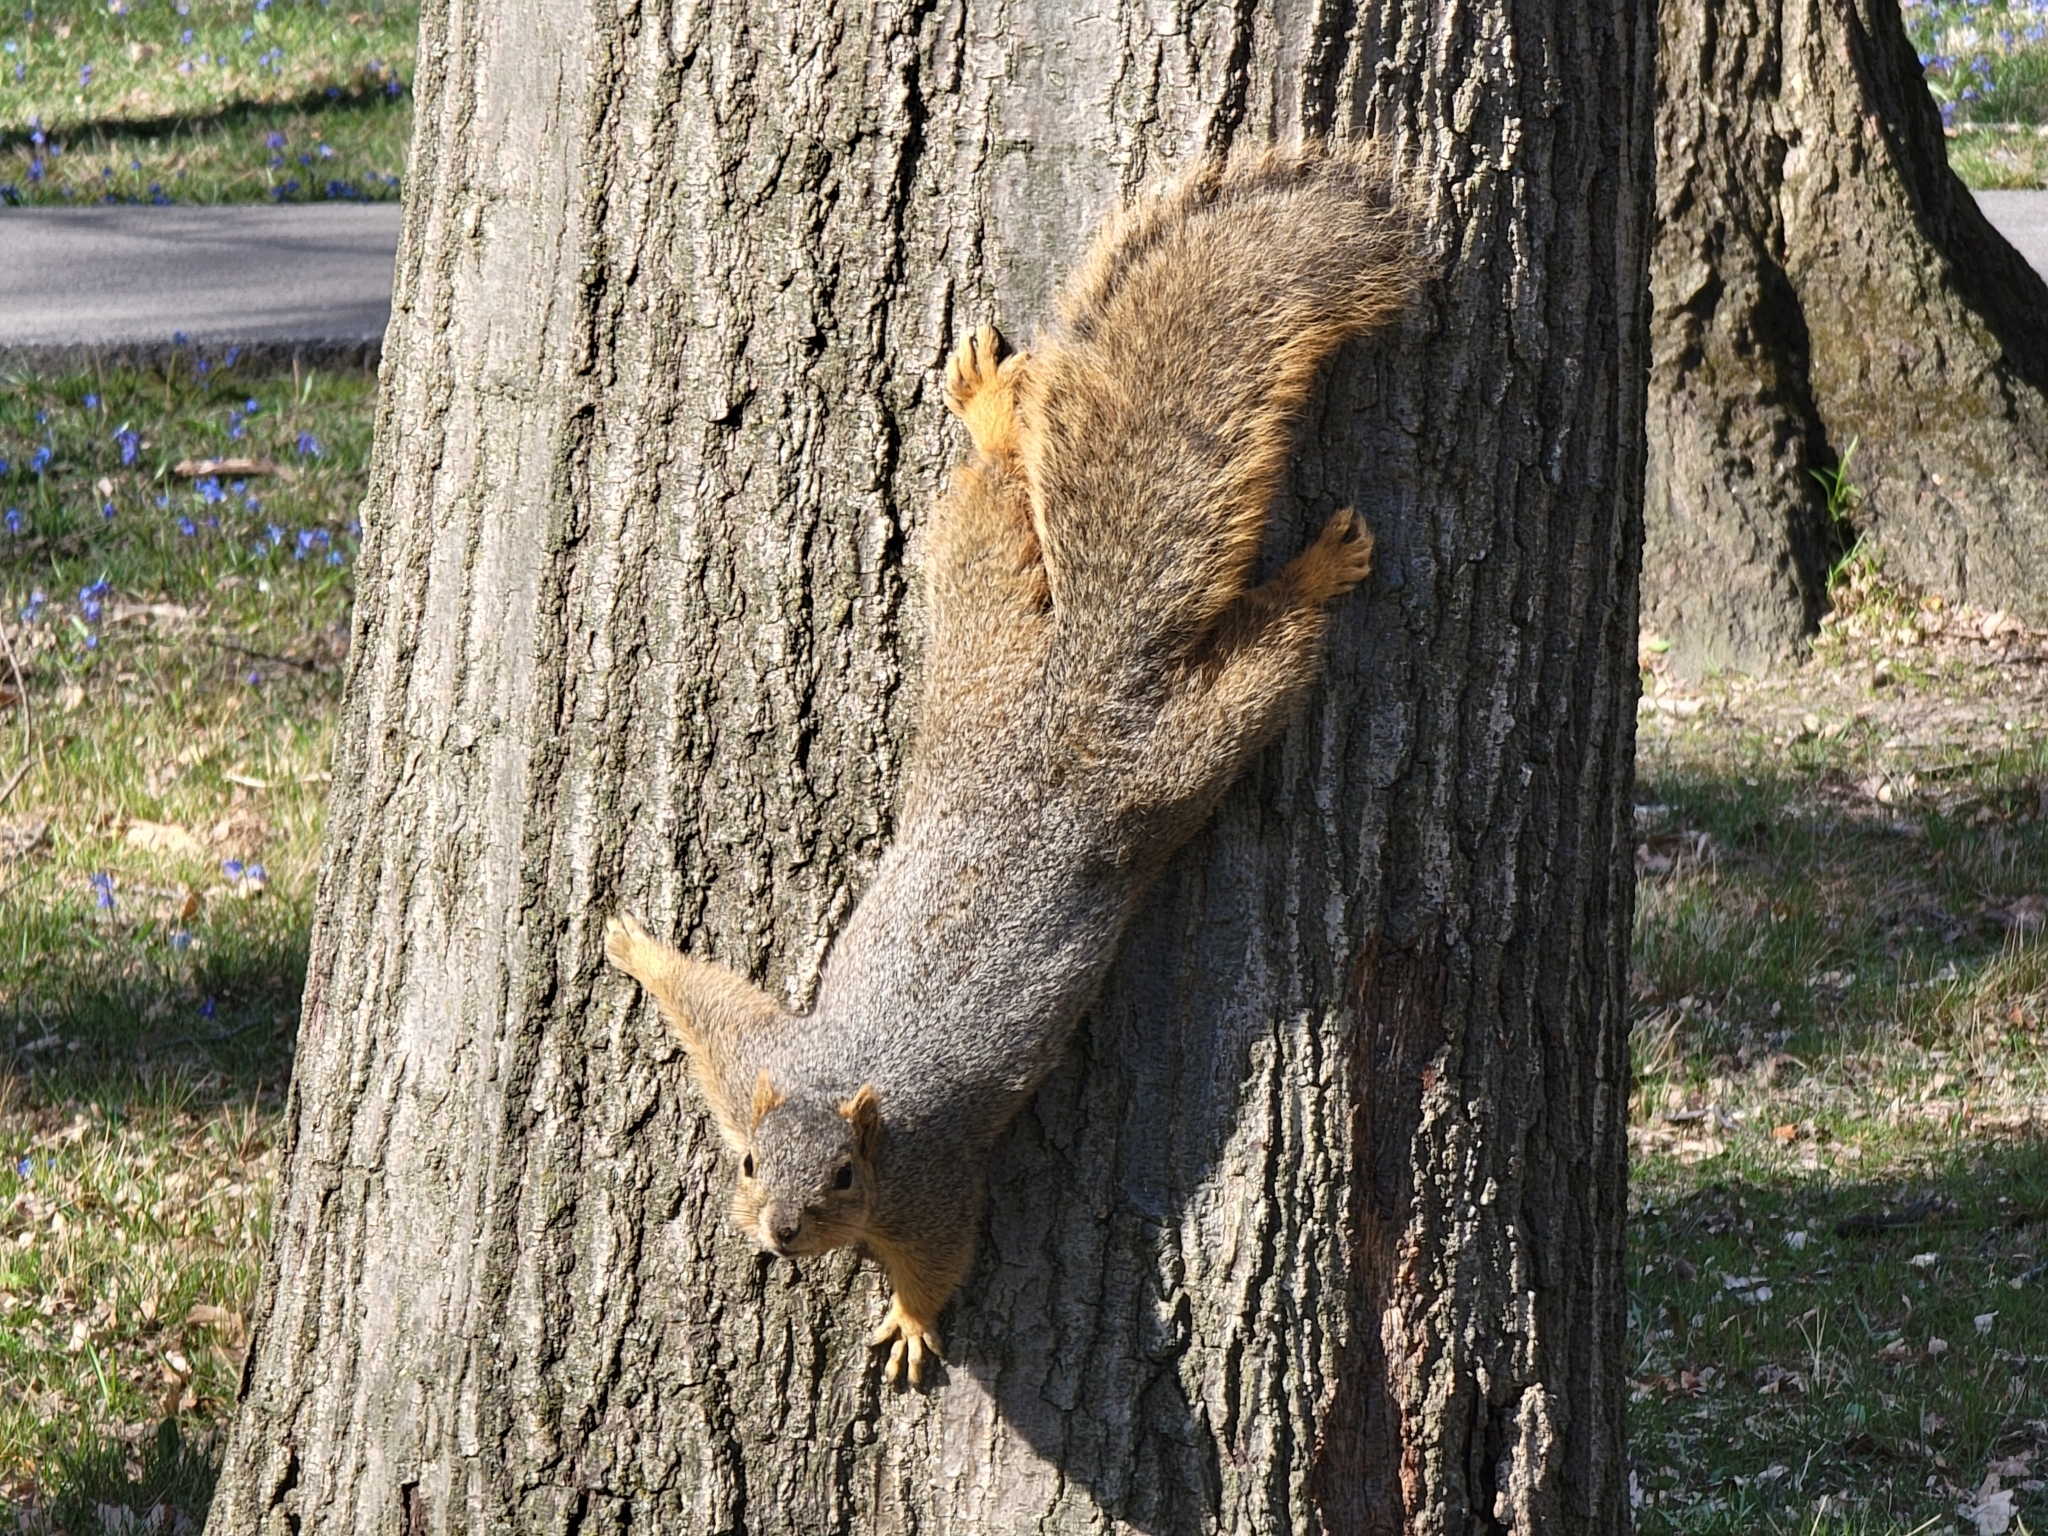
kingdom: Animalia
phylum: Chordata
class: Mammalia
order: Rodentia
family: Sciuridae
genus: Sciurus
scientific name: Sciurus niger
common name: Fox squirrel
